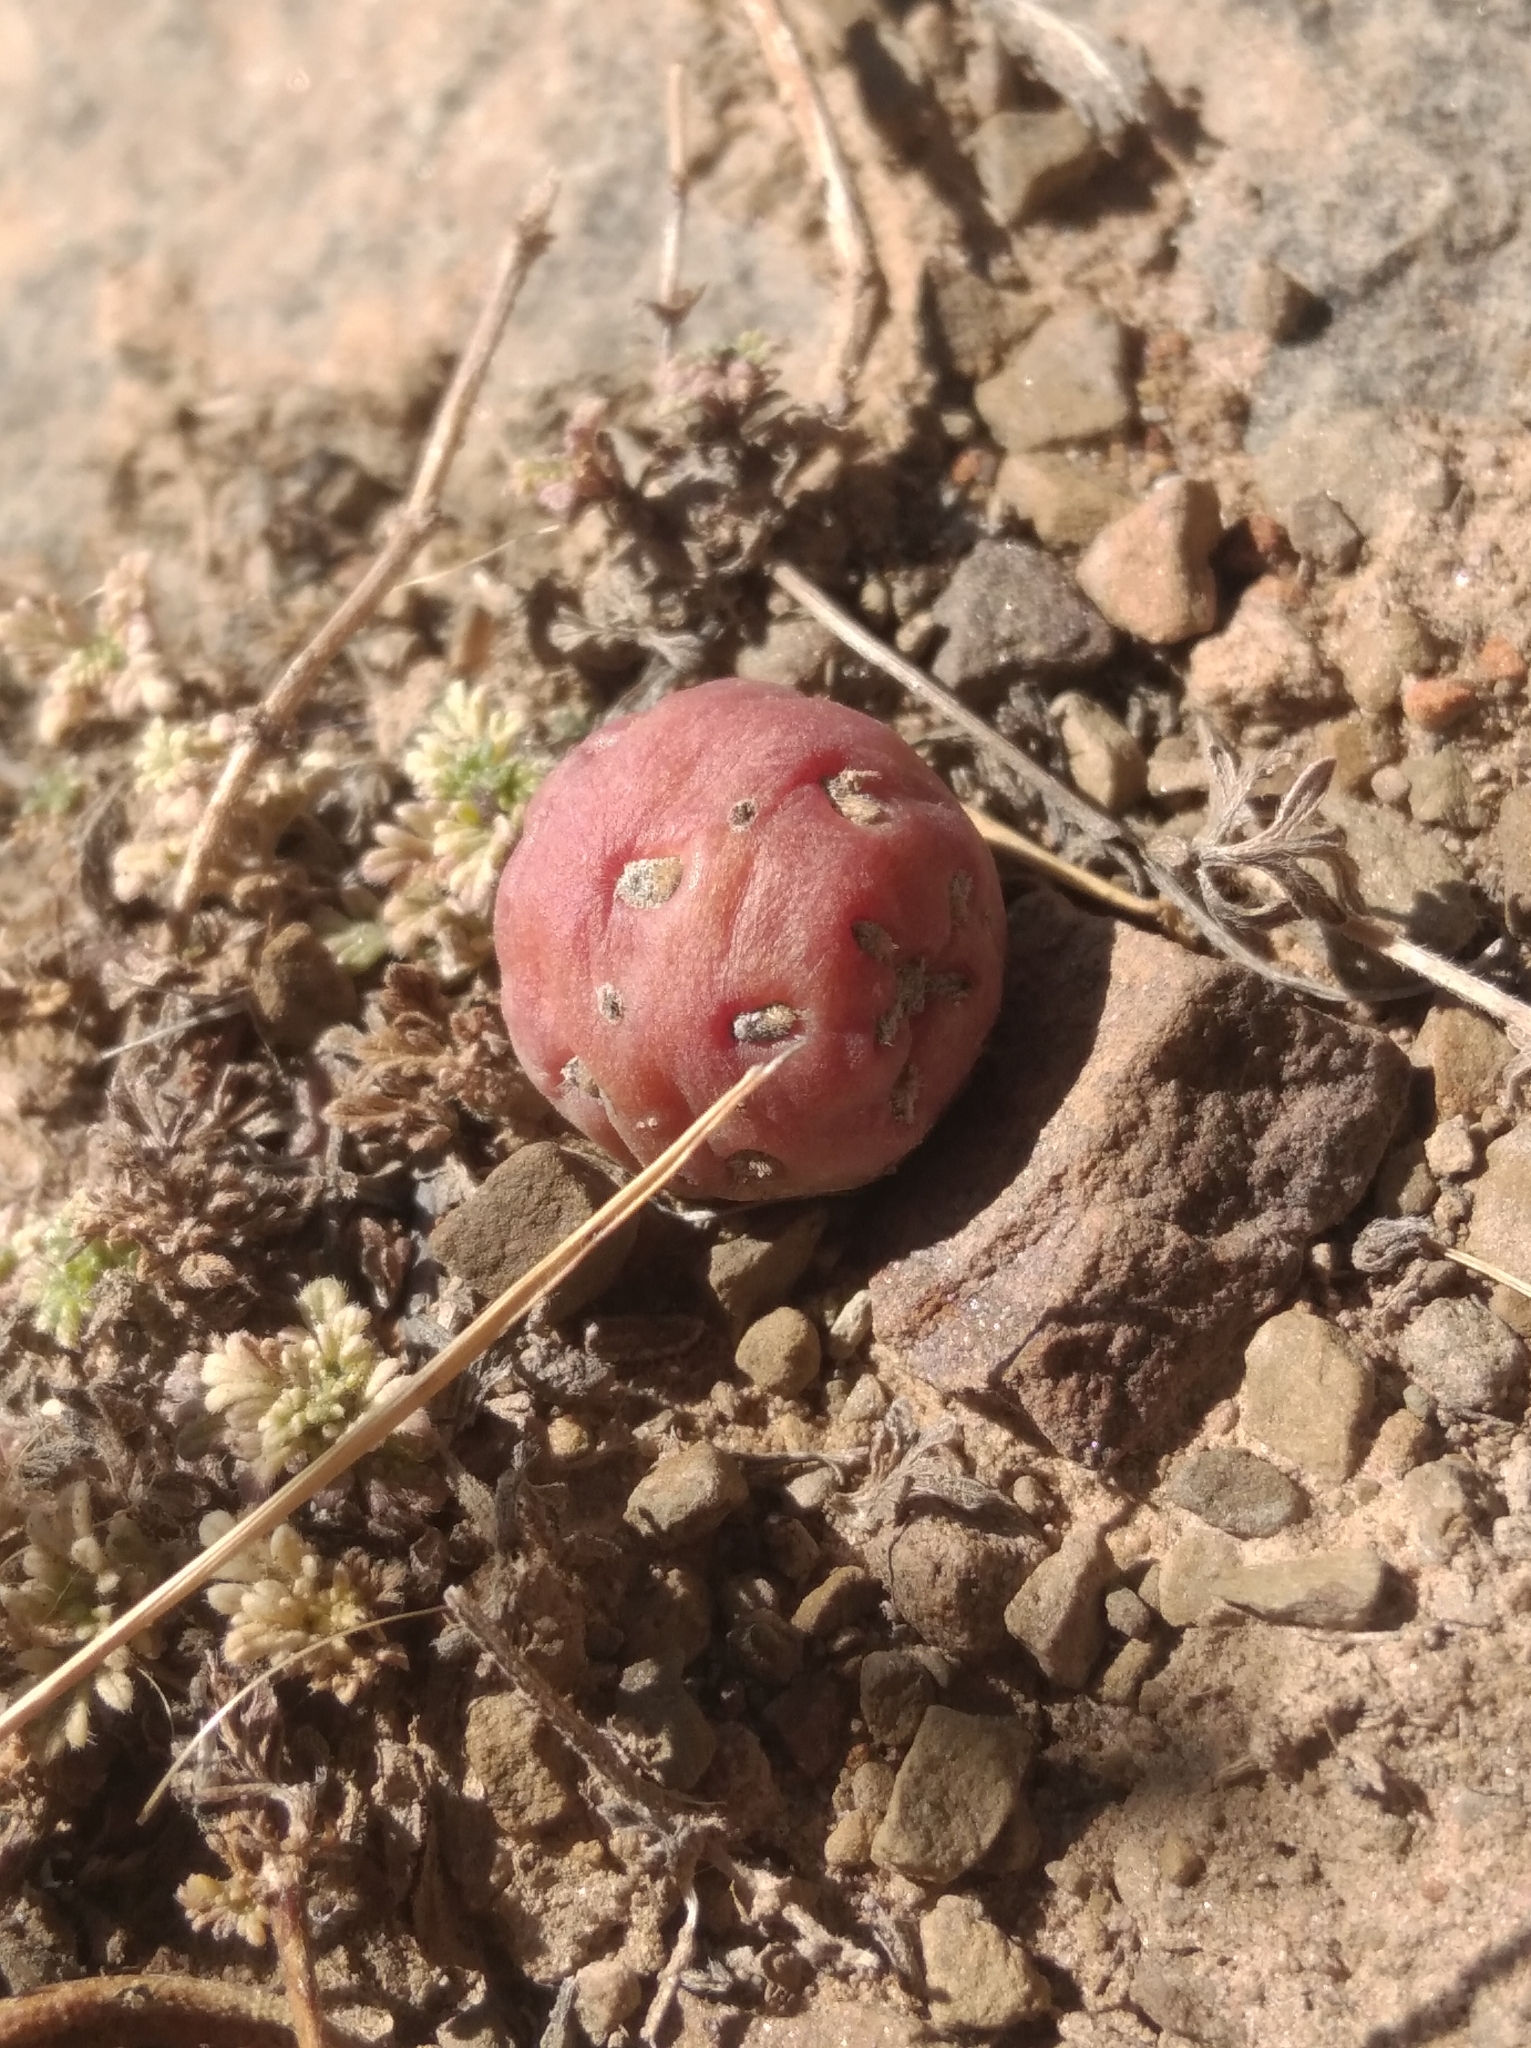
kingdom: Plantae
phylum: Tracheophyta
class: Magnoliopsida
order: Caryophyllales
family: Cactaceae
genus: Tephrocactus
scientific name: Tephrocactus verschaffeltii
